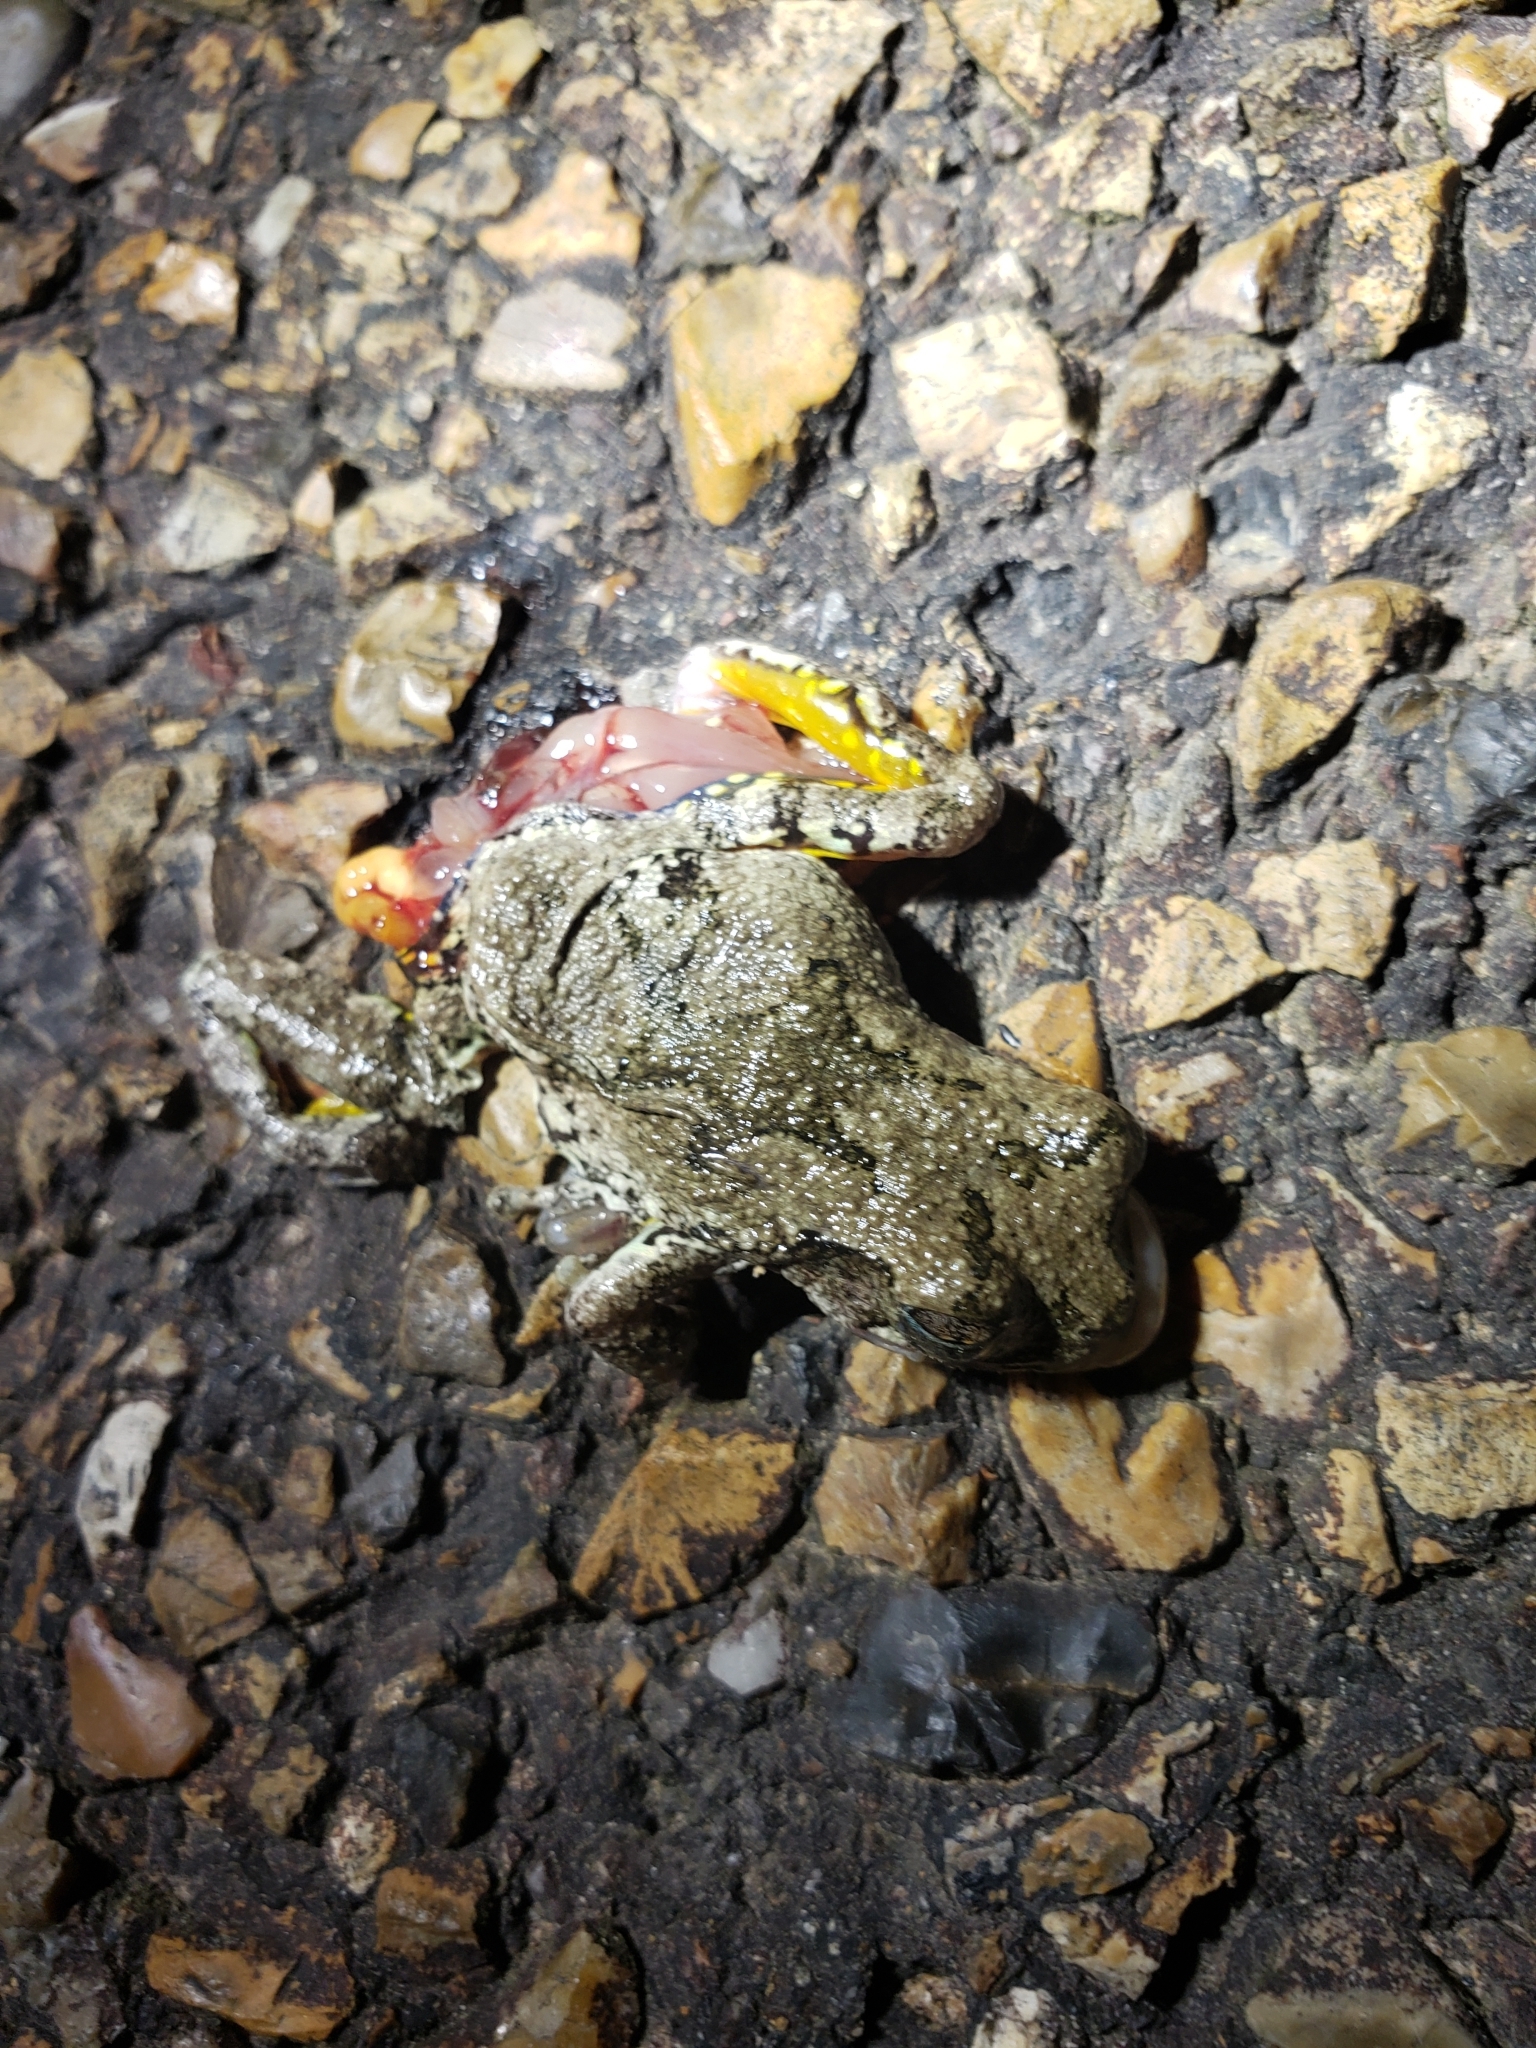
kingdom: Animalia
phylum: Chordata
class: Amphibia
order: Anura
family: Hylidae
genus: Dryophytes
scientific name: Dryophytes chrysoscelis
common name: Cope's gray treefrog
